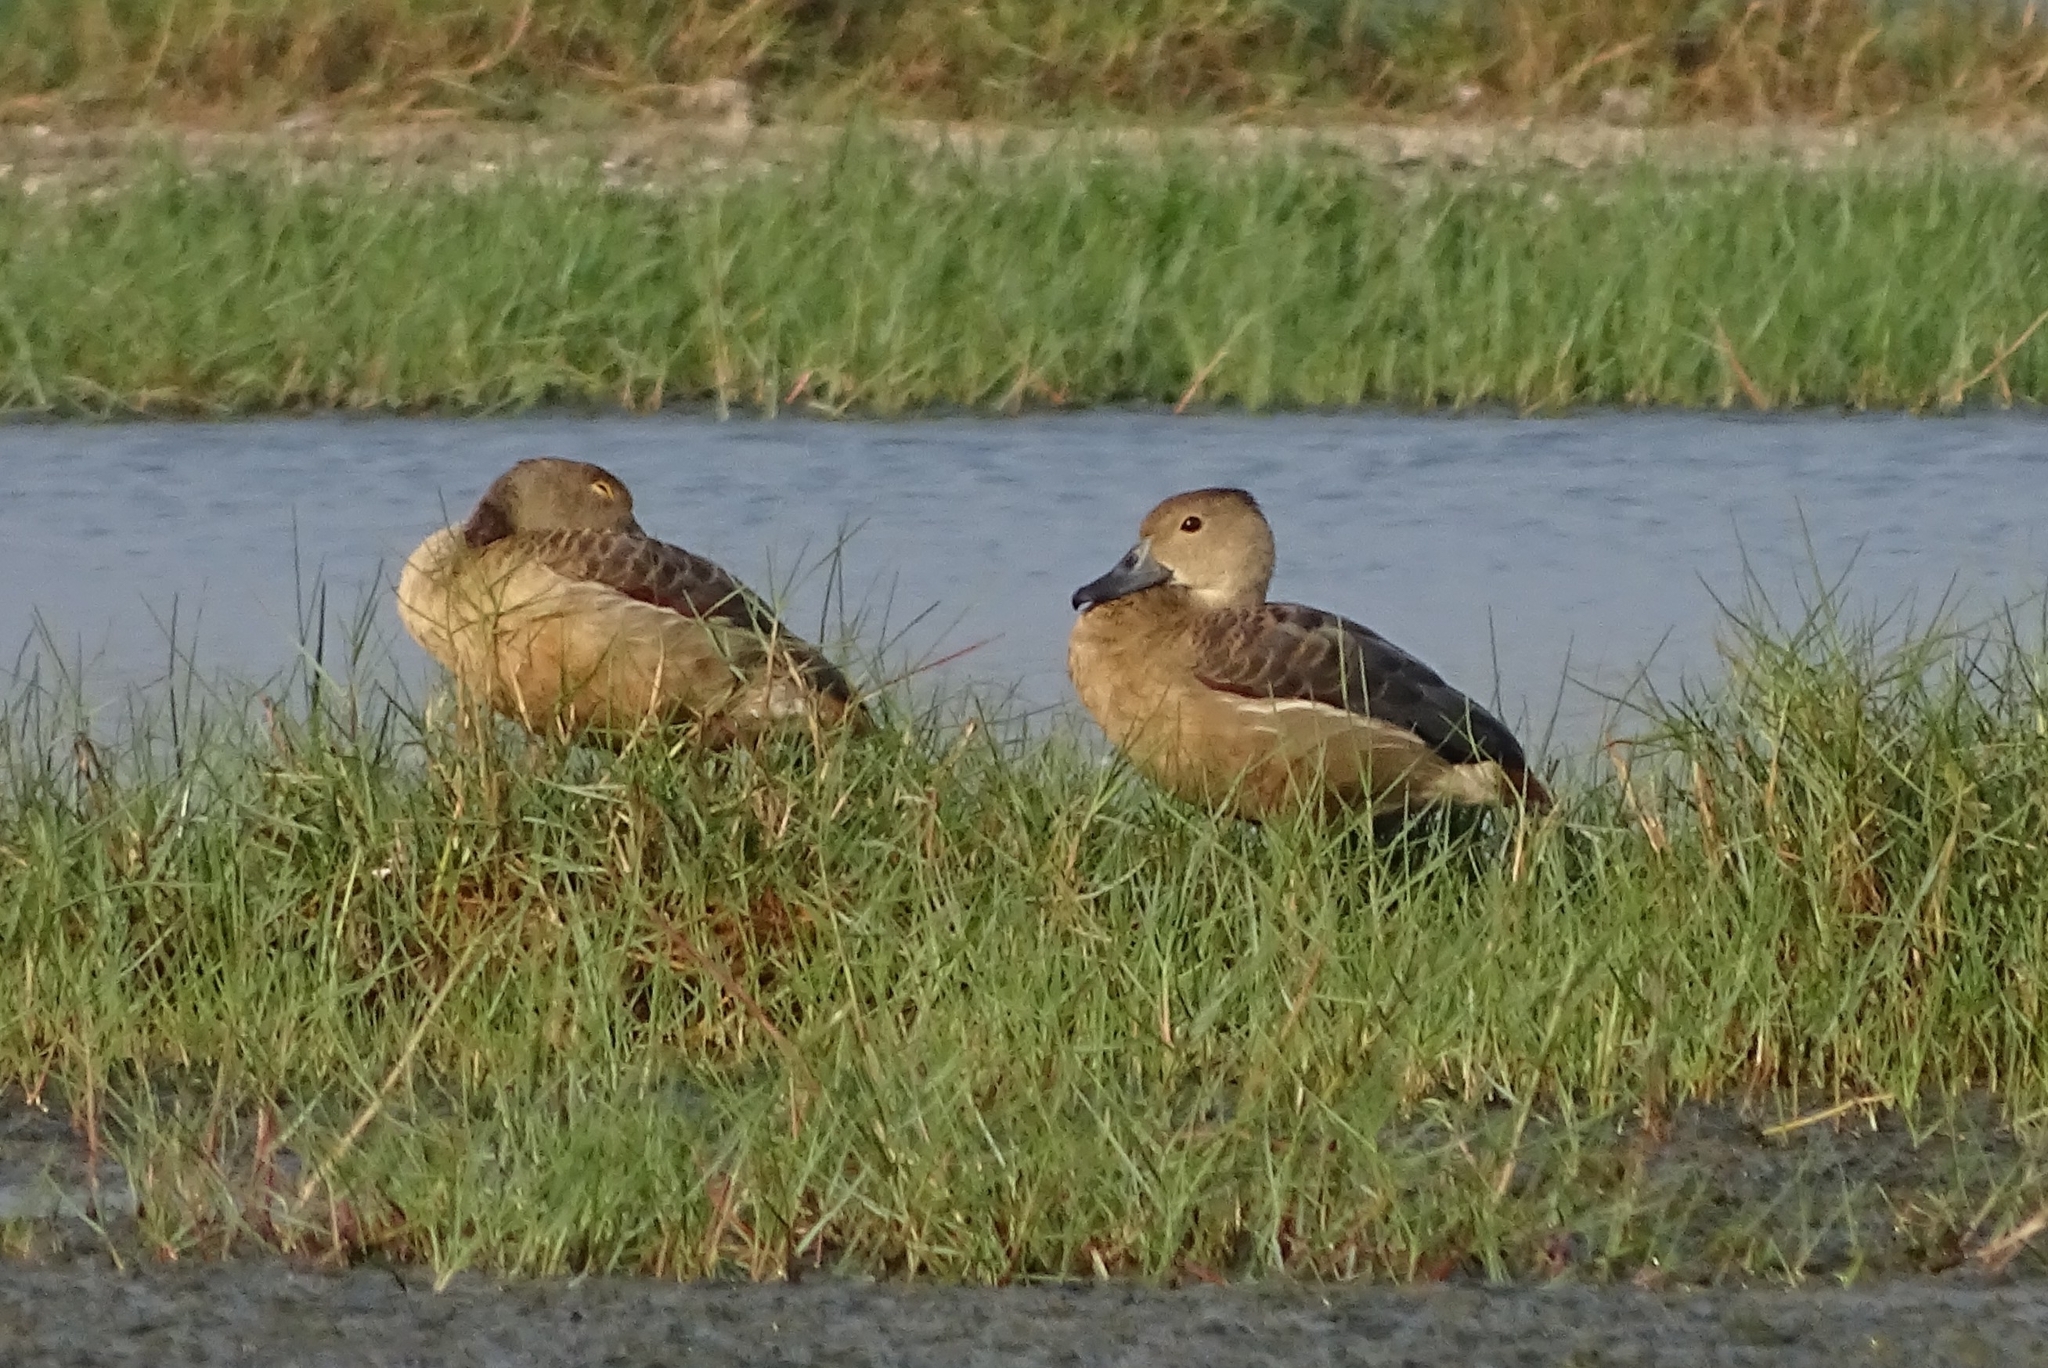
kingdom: Animalia
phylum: Chordata
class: Aves
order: Anseriformes
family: Anatidae
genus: Dendrocygna
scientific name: Dendrocygna javanica
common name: Lesser whistling-duck
